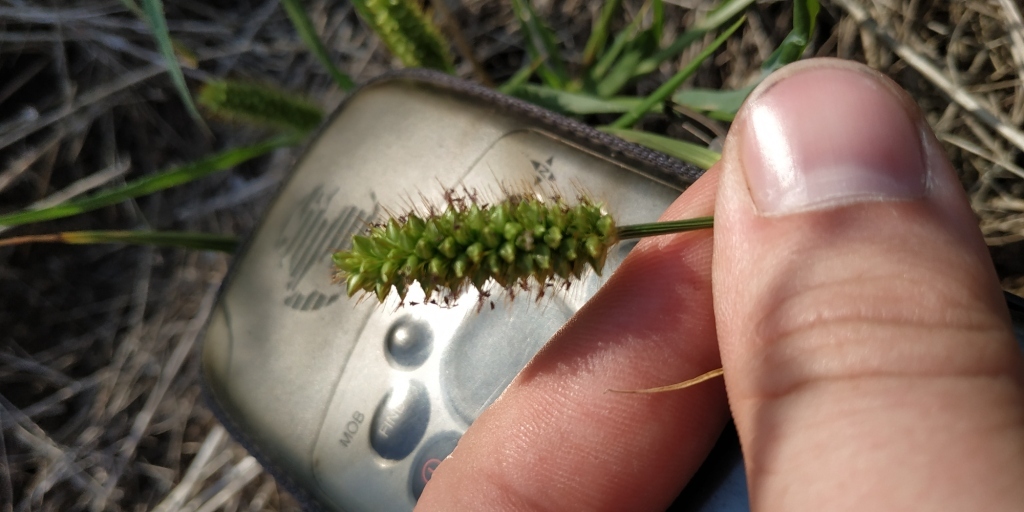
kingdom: Plantae
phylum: Tracheophyta
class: Liliopsida
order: Poales
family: Poaceae
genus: Setaria
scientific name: Setaria pumila
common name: Yellow bristle-grass
